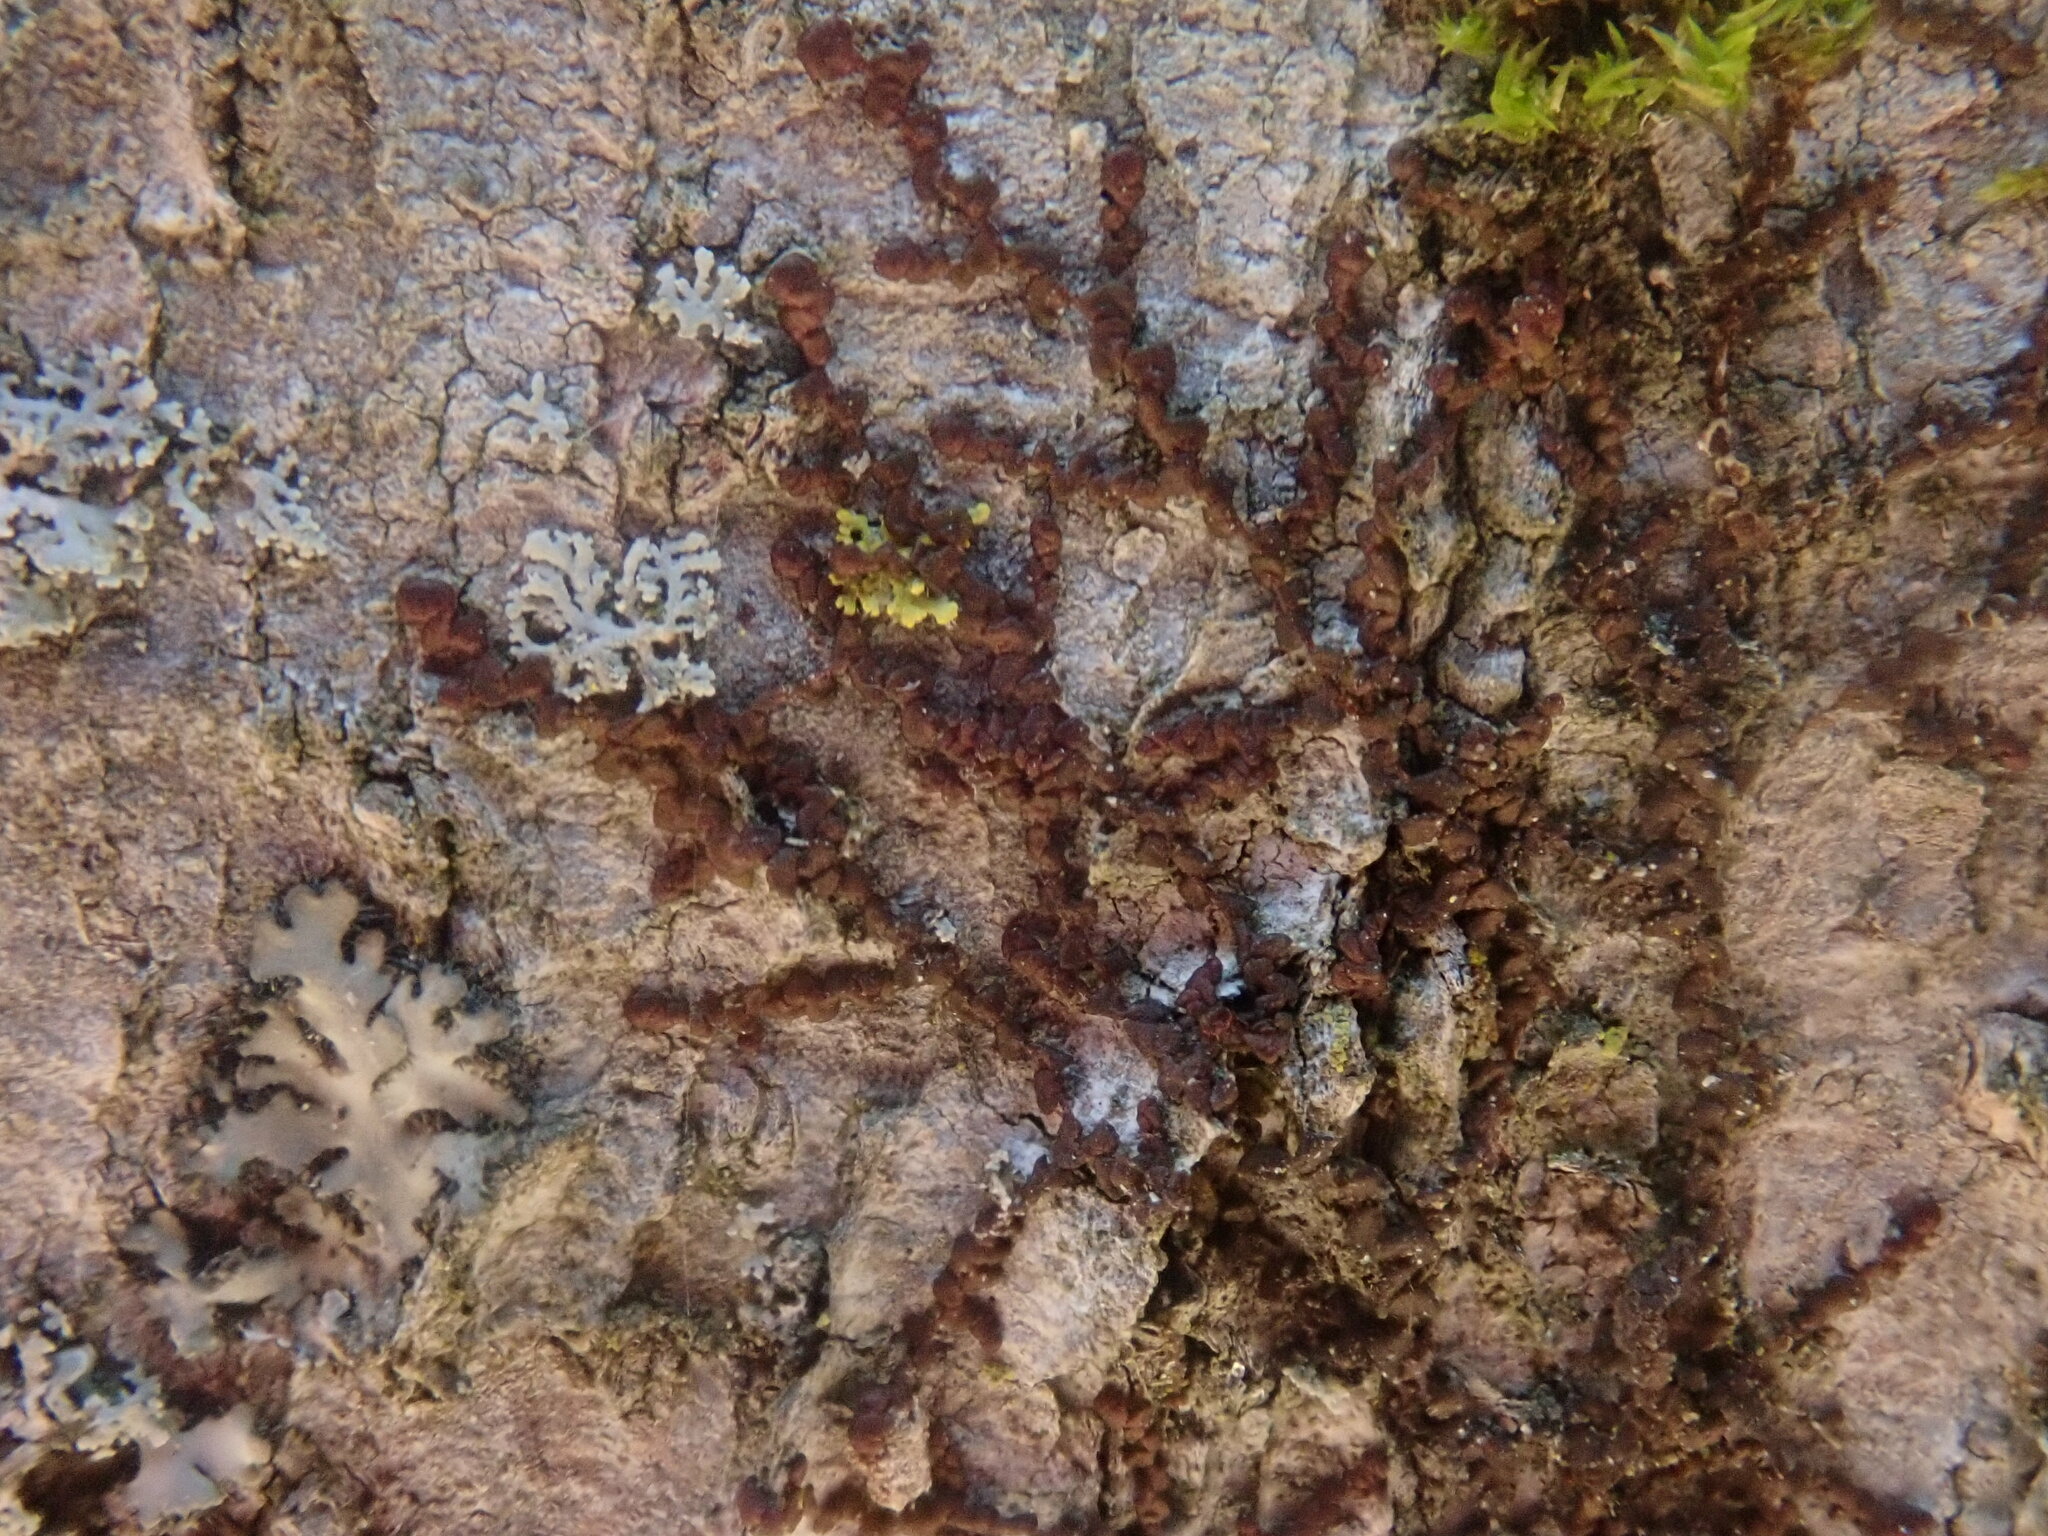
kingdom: Plantae
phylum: Marchantiophyta
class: Jungermanniopsida
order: Porellales
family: Frullaniaceae
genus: Frullania
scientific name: Frullania
